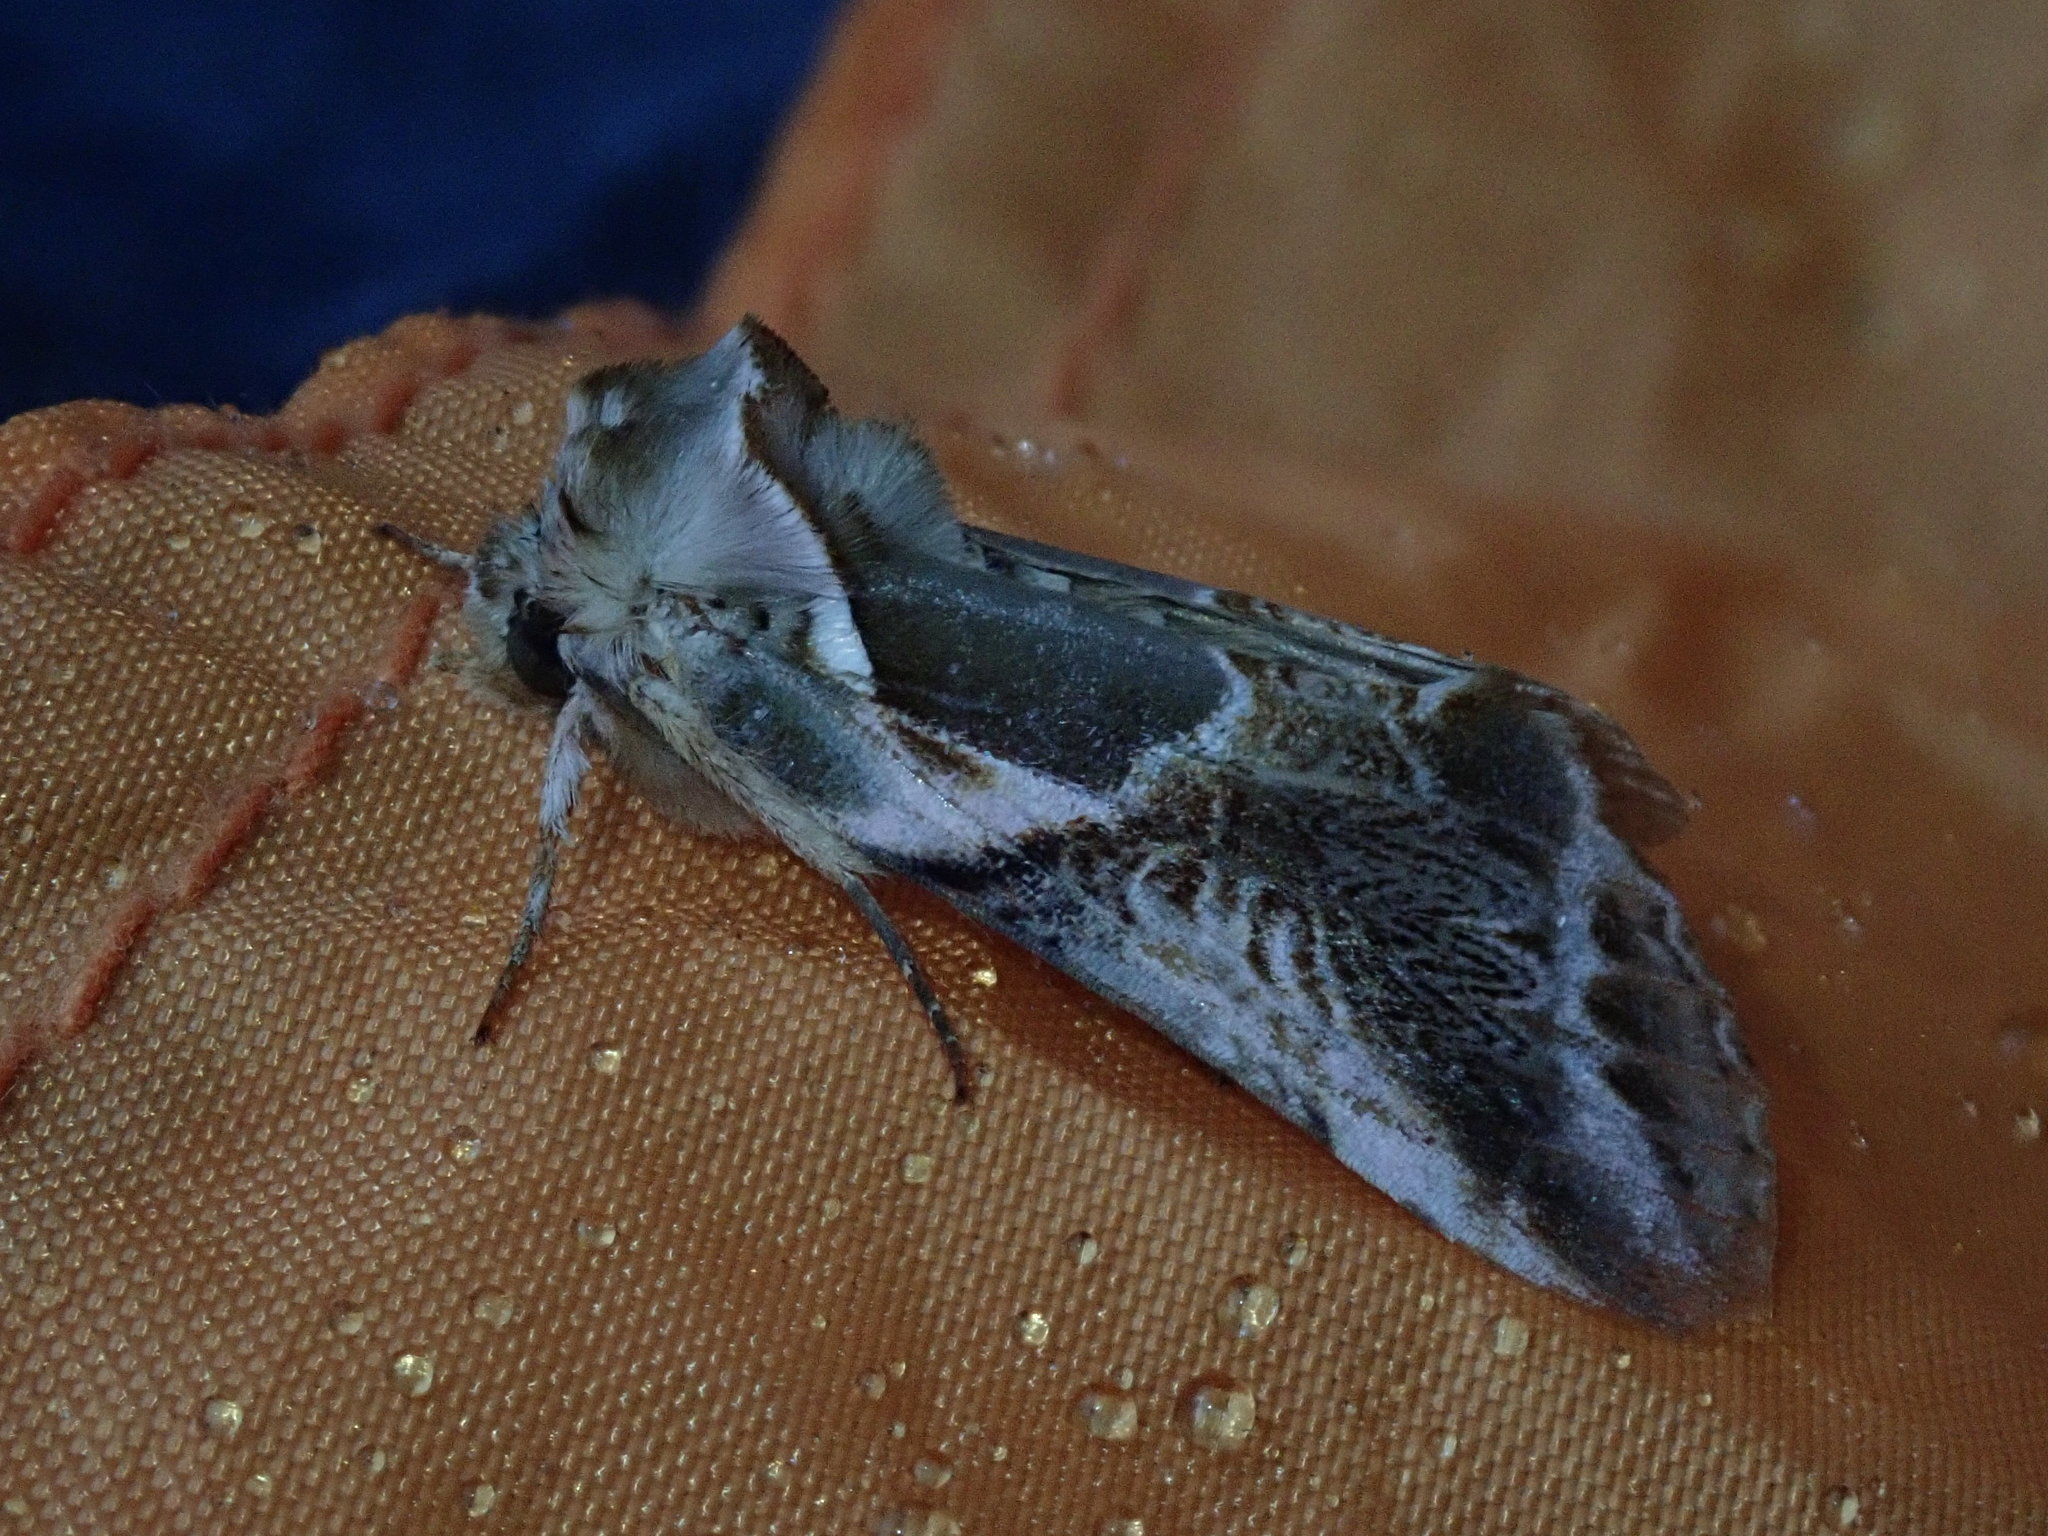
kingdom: Animalia
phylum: Arthropoda
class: Insecta
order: Lepidoptera
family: Drepanidae
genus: Habrosyne
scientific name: Habrosyne scripta
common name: Lettered habrosyne moth
